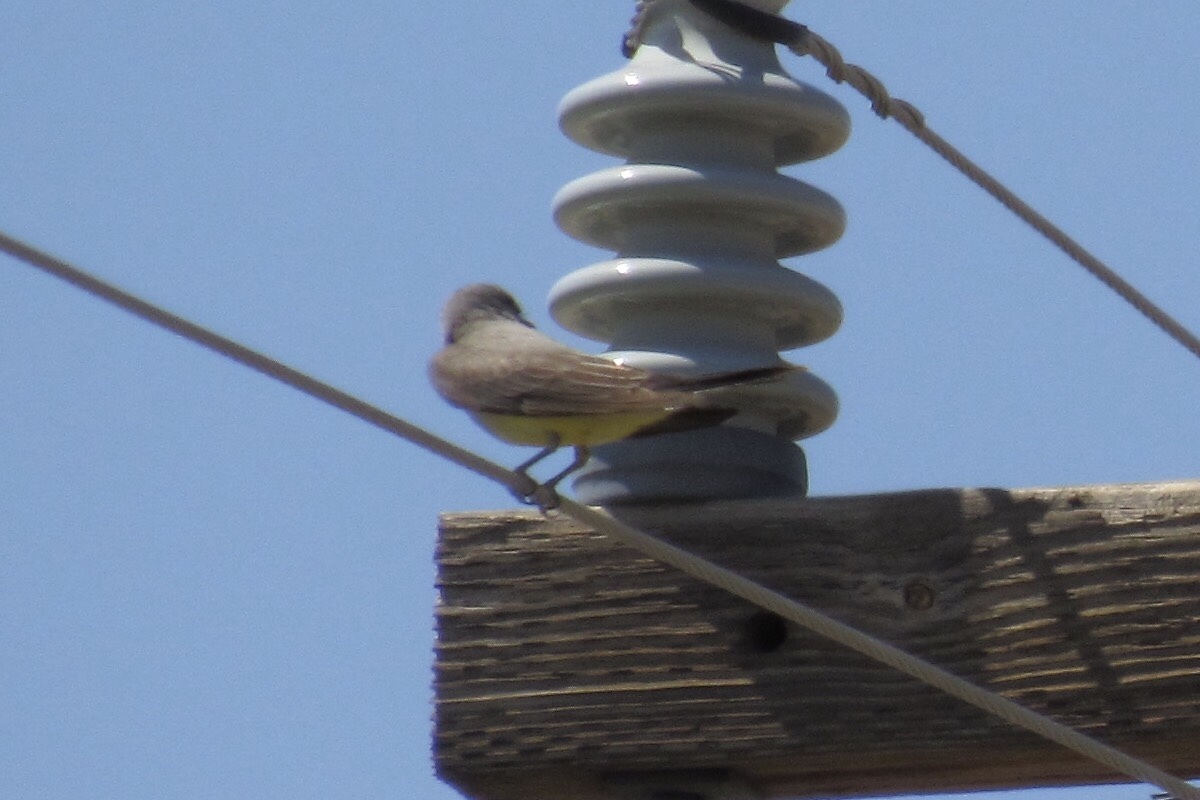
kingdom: Animalia
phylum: Chordata
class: Aves
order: Passeriformes
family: Tyrannidae
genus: Tyrannus
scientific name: Tyrannus verticalis
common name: Western kingbird
